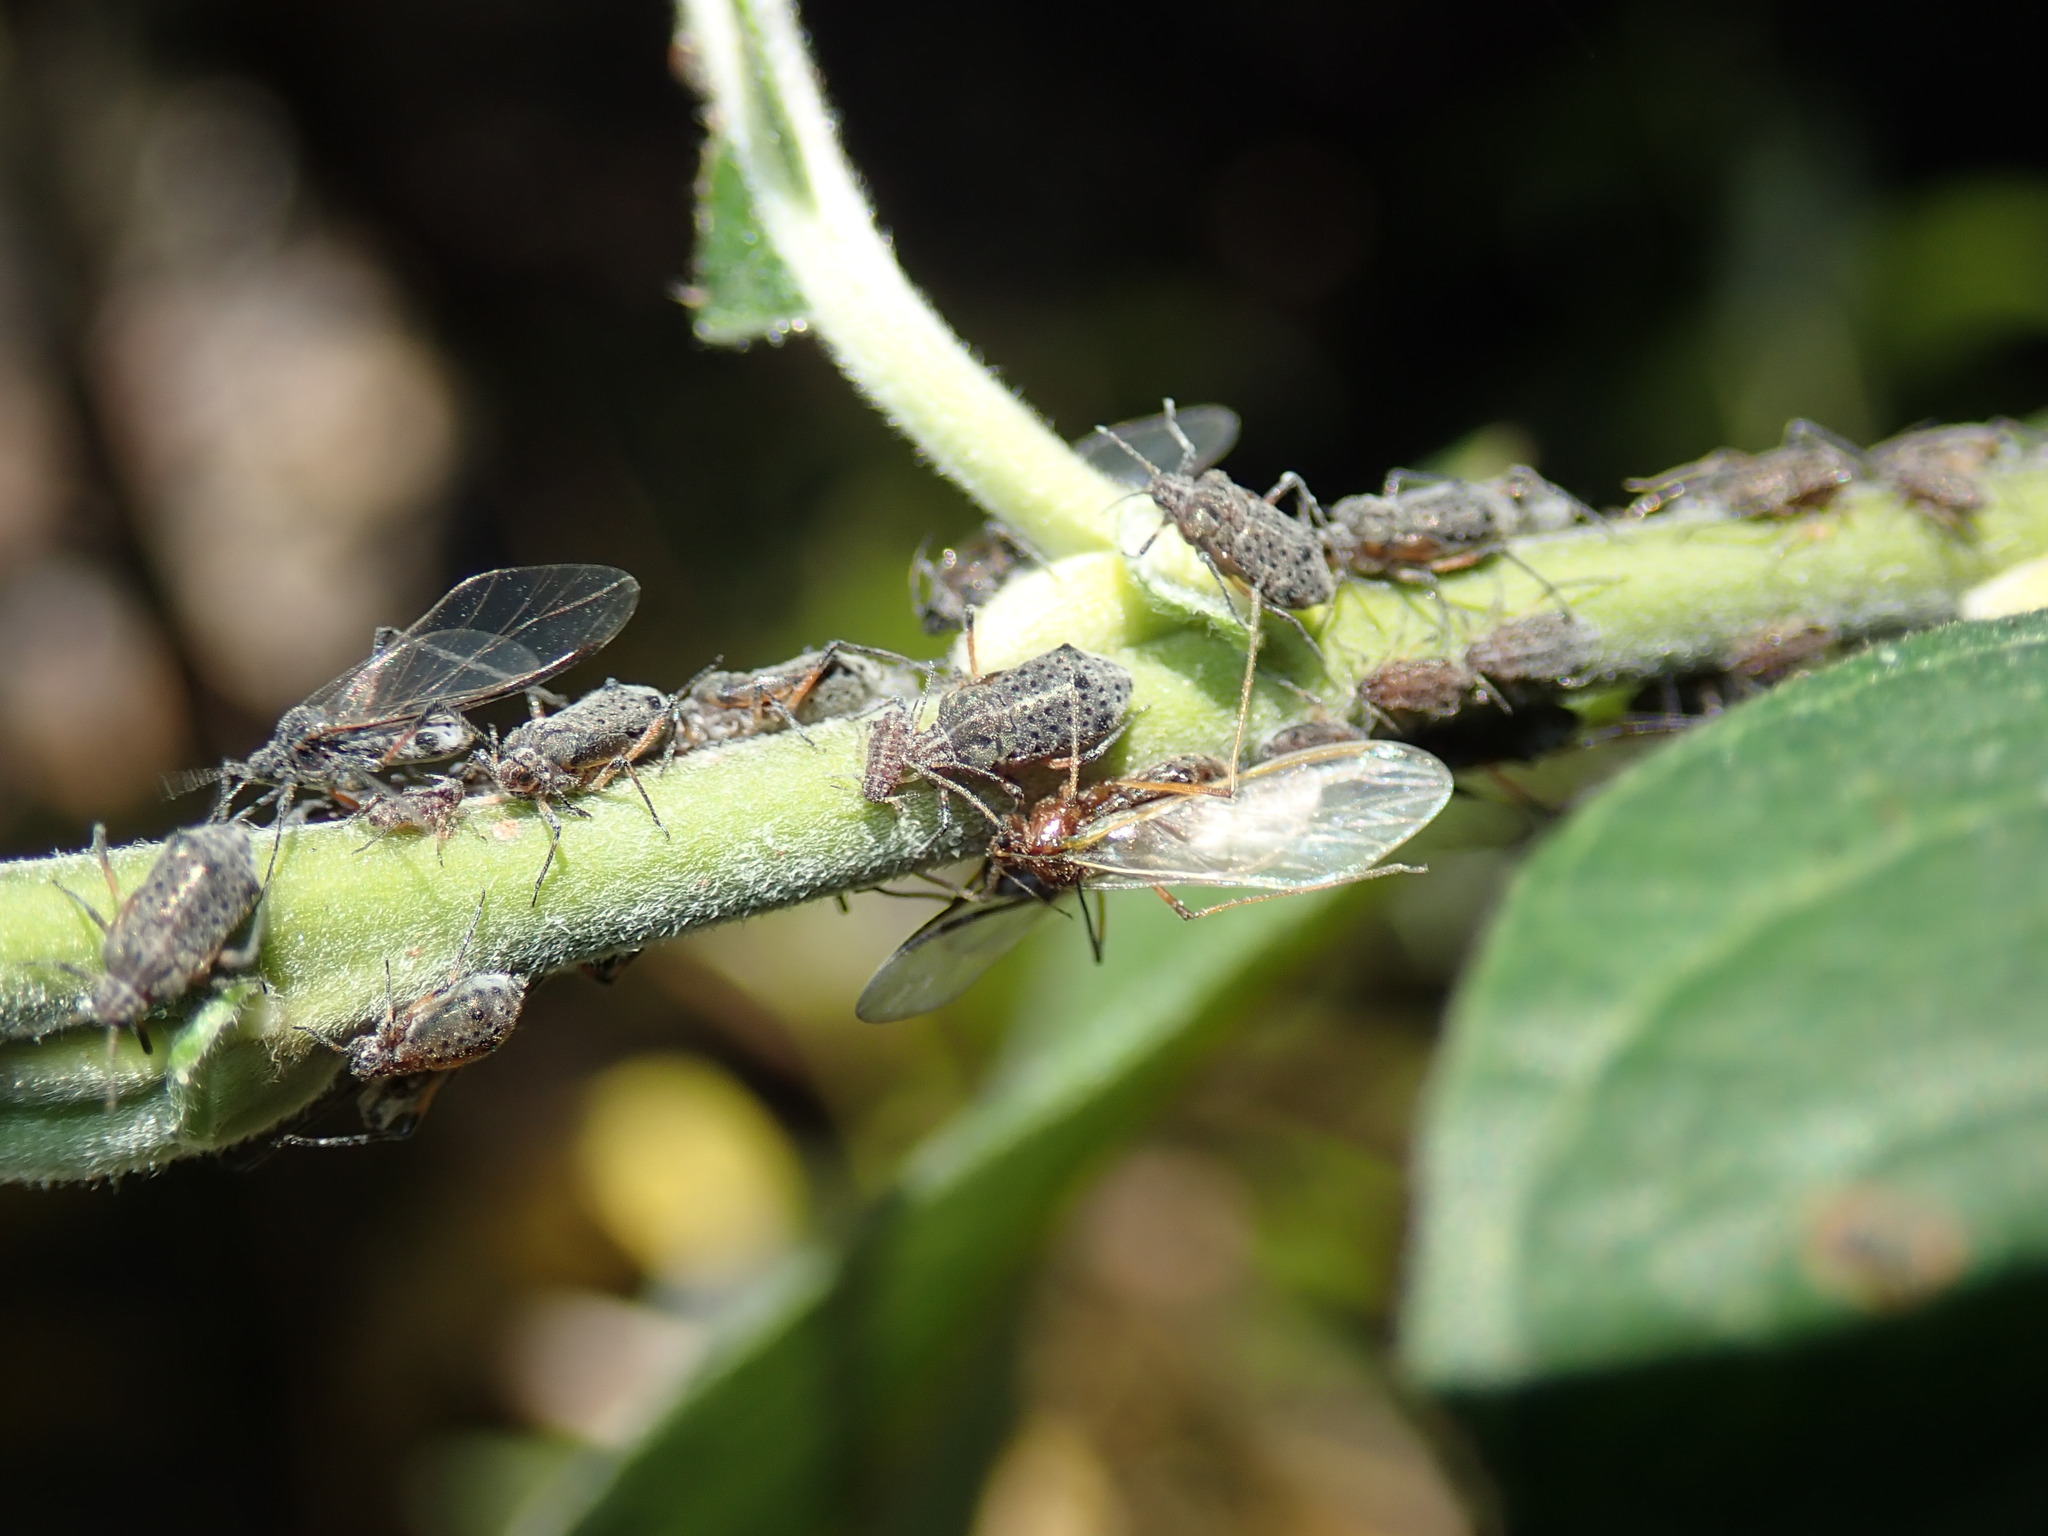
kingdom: Animalia
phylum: Arthropoda
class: Insecta
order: Hemiptera
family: Aphididae
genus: Tuberolachnus
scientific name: Tuberolachnus salignus
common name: Giant willow aphid
